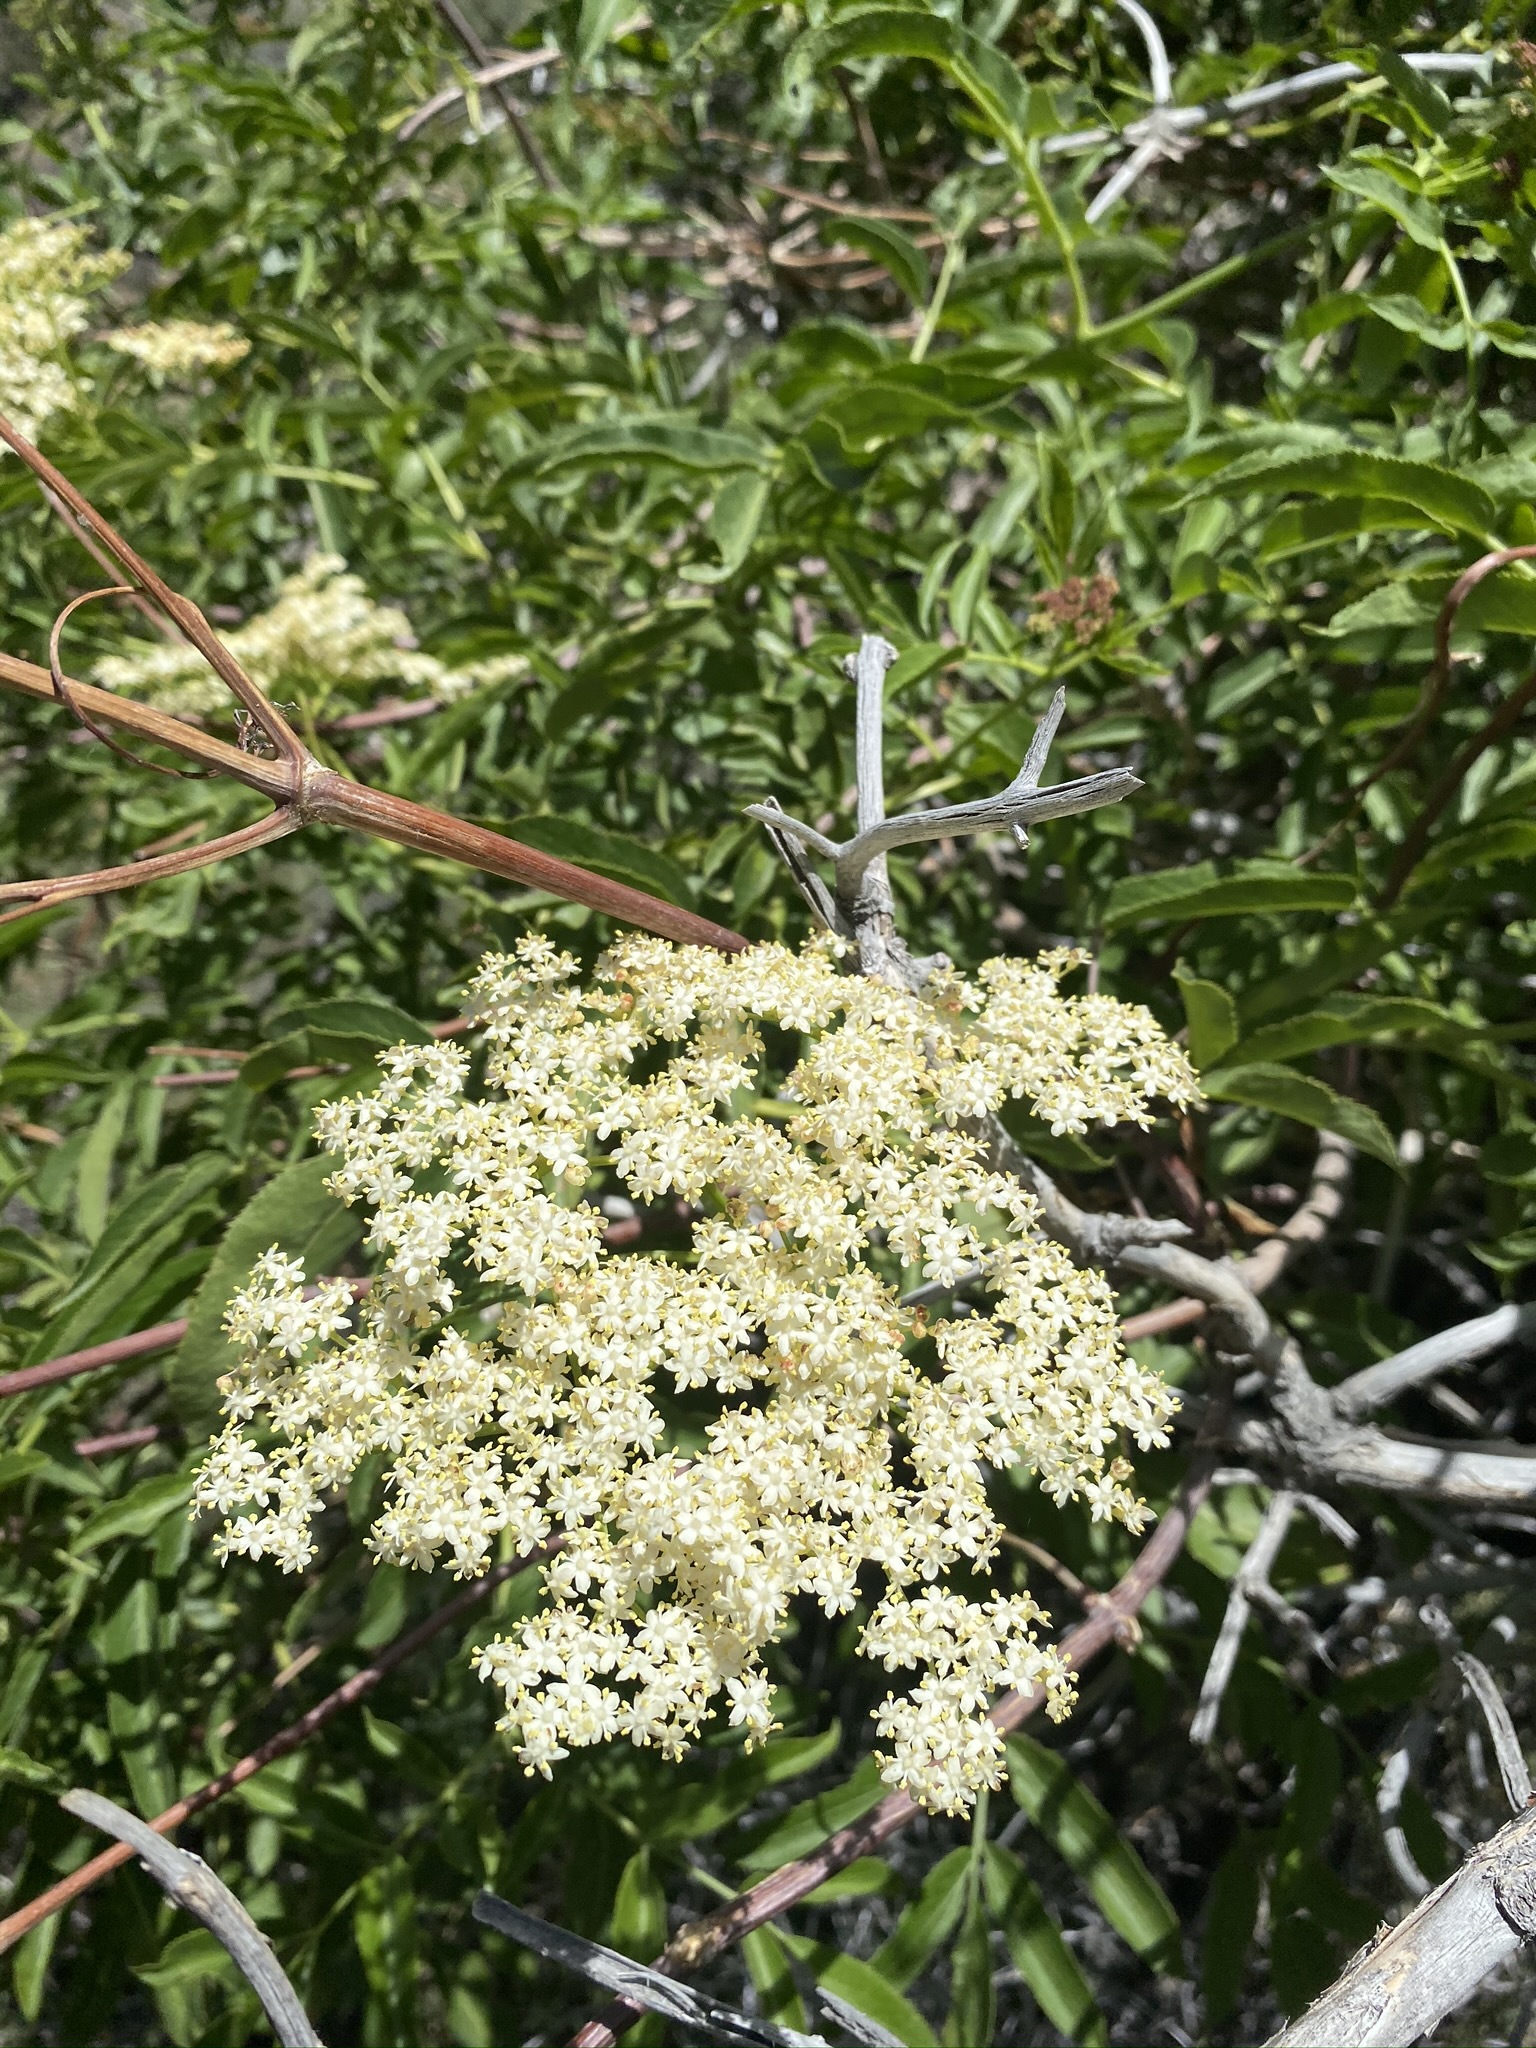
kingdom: Plantae
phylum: Tracheophyta
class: Magnoliopsida
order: Dipsacales
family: Viburnaceae
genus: Sambucus
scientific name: Sambucus cerulea
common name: Blue elder
